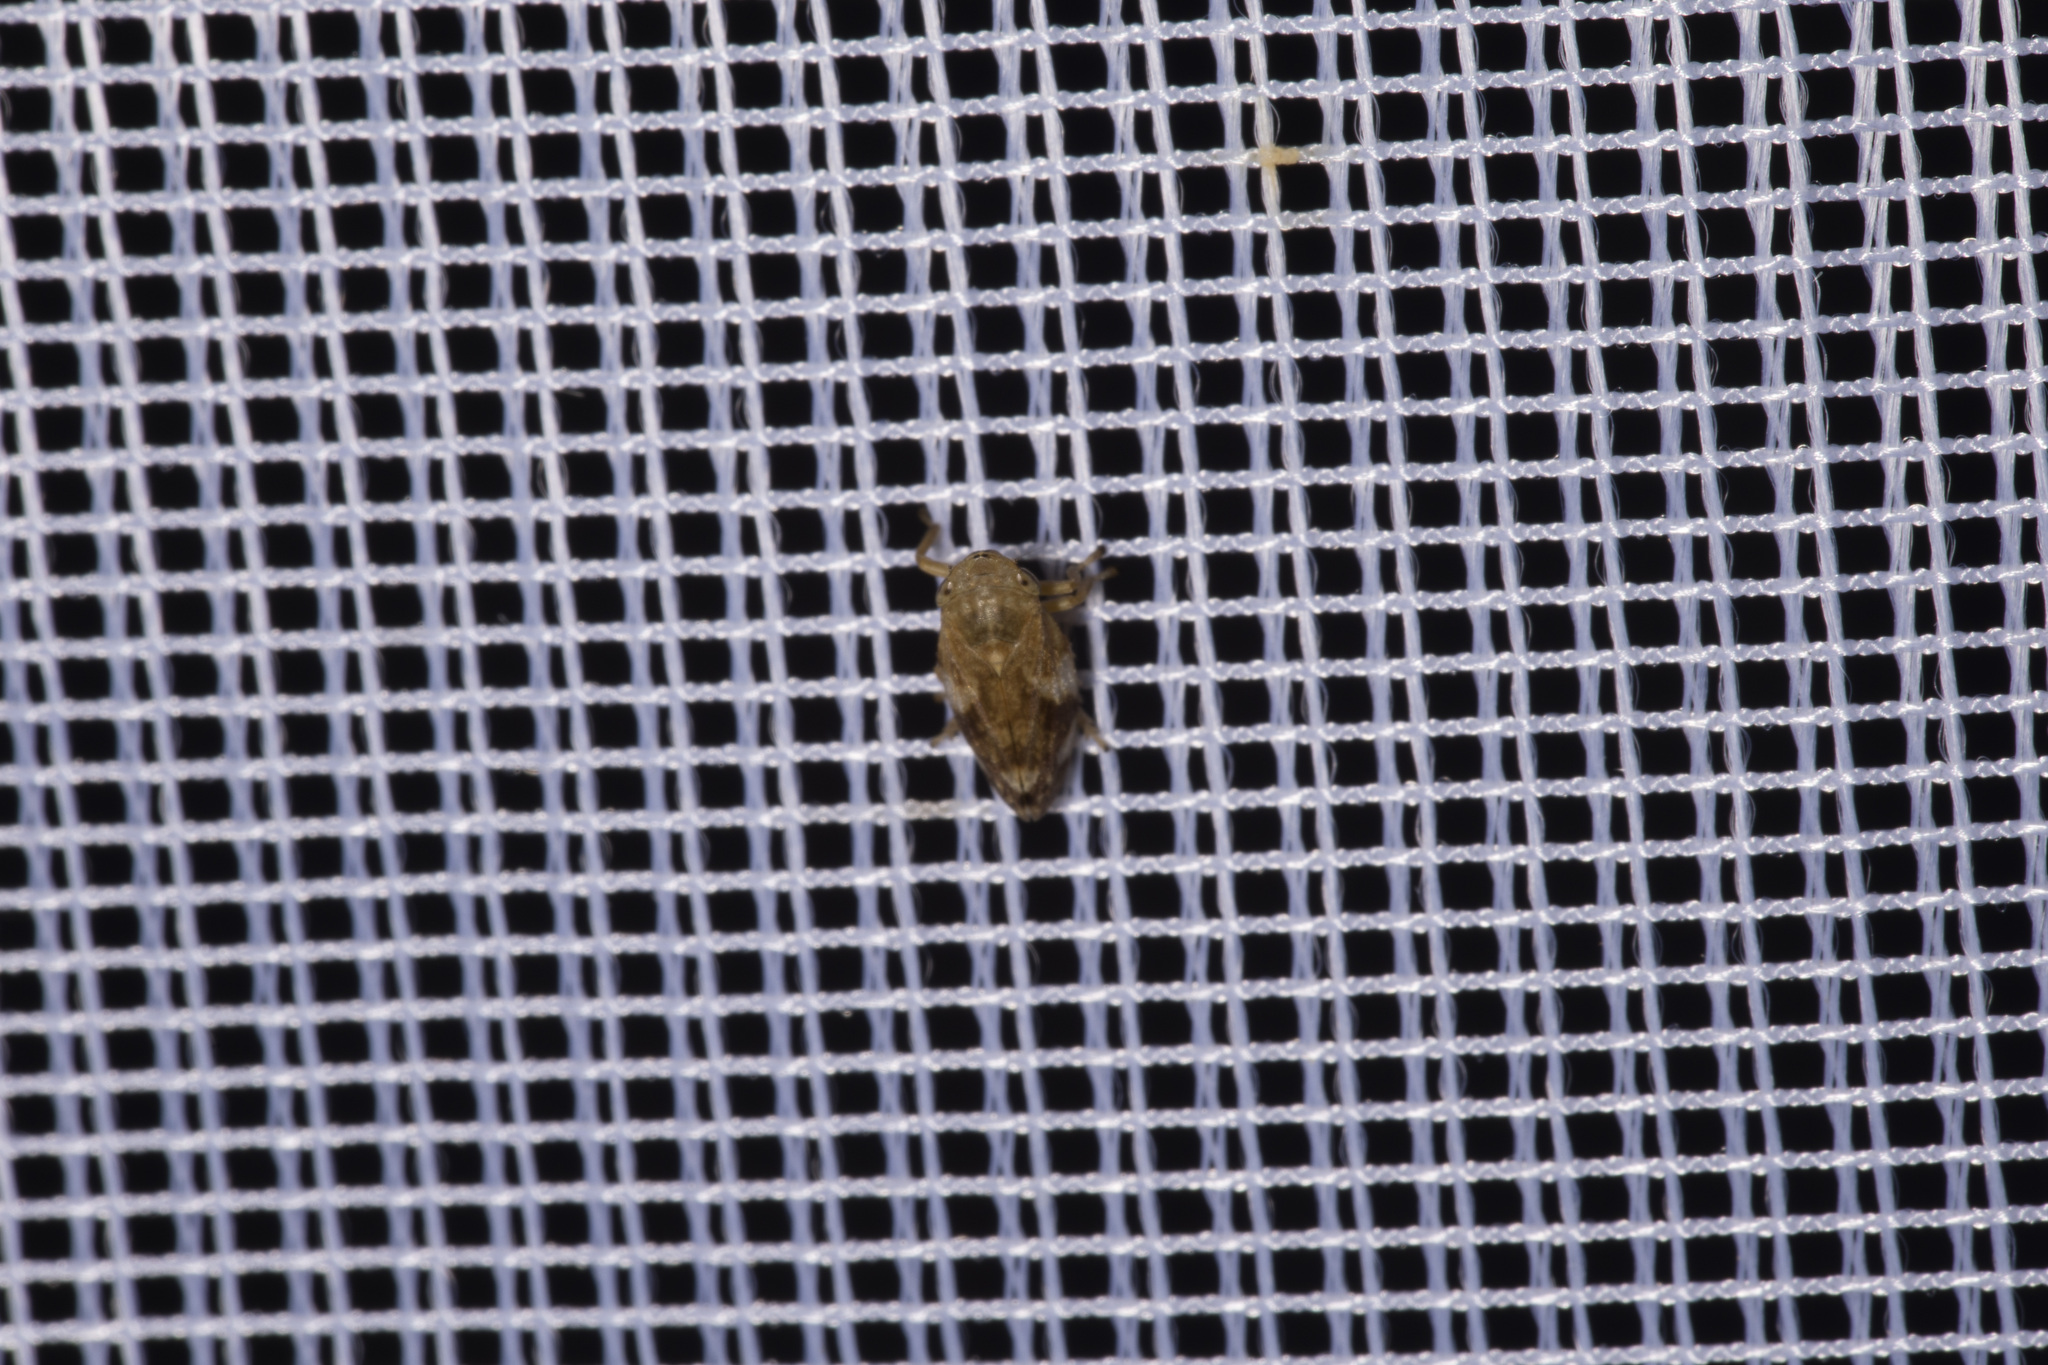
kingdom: Animalia
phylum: Arthropoda
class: Insecta
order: Hemiptera
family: Aphrophoridae
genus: Philaenus
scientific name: Philaenus spumarius
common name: Meadow spittlebug
